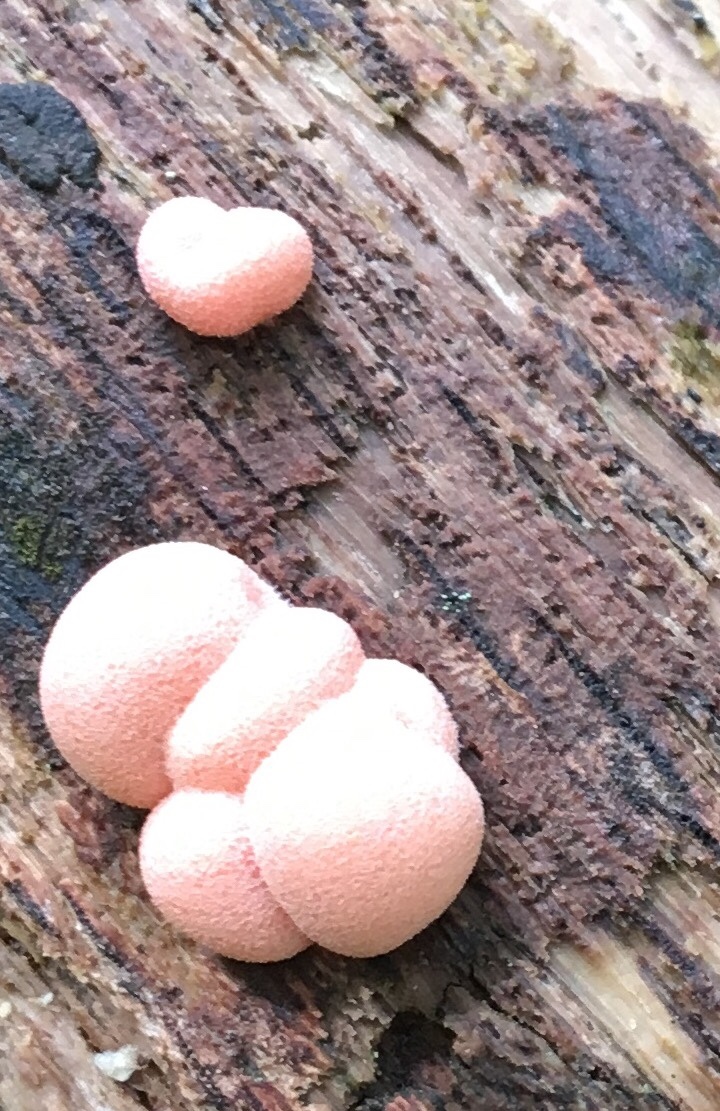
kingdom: Protozoa
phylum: Mycetozoa
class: Myxomycetes
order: Cribrariales
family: Tubiferaceae
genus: Lycogala
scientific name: Lycogala epidendrum
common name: Wolf's milk
